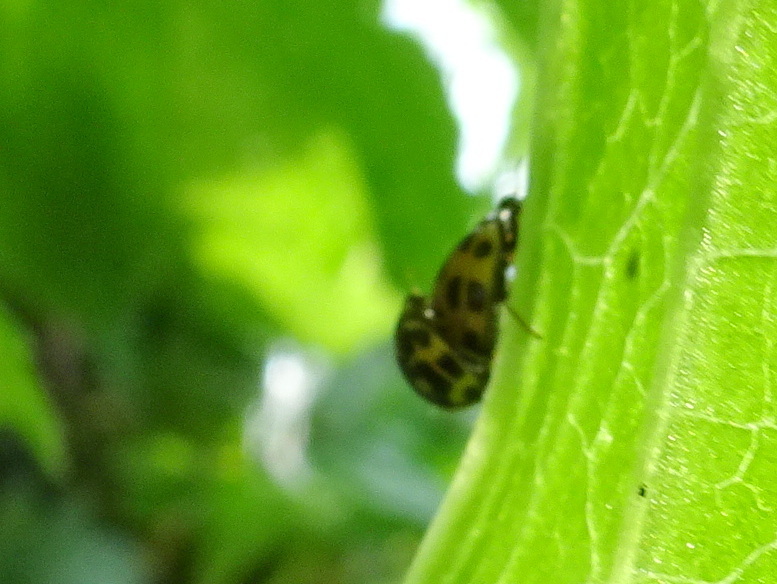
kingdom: Animalia
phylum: Arthropoda
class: Insecta
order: Coleoptera
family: Coccinellidae
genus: Propylaea
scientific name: Propylaea quatuordecimpunctata
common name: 14-spotted ladybird beetle
